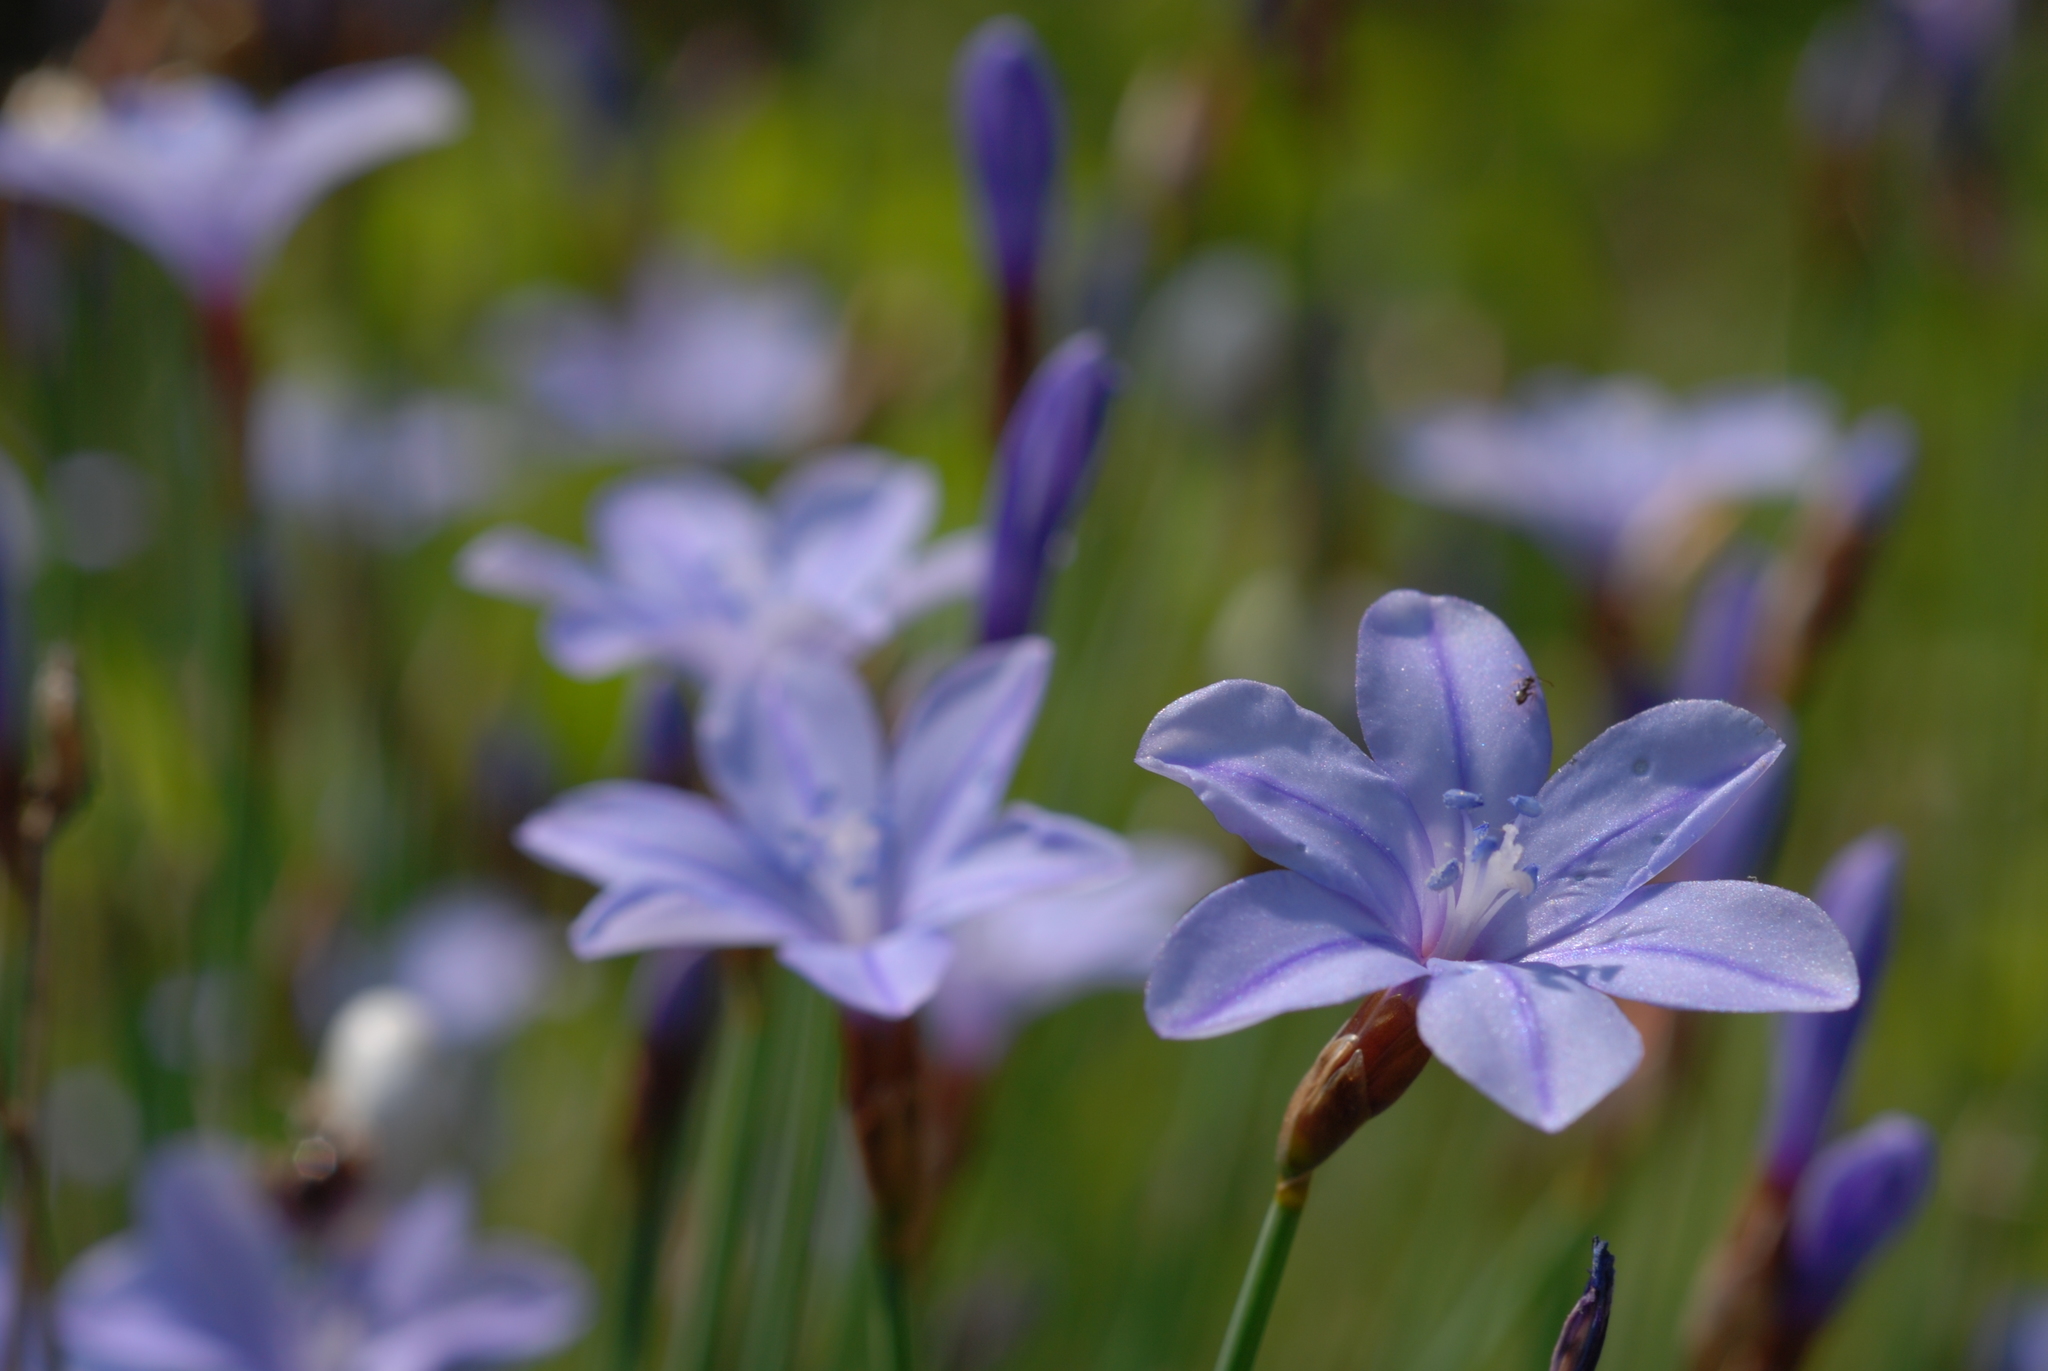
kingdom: Plantae
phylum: Tracheophyta
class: Liliopsida
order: Asparagales
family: Asparagaceae
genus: Aphyllanthes
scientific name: Aphyllanthes monspeliensis
